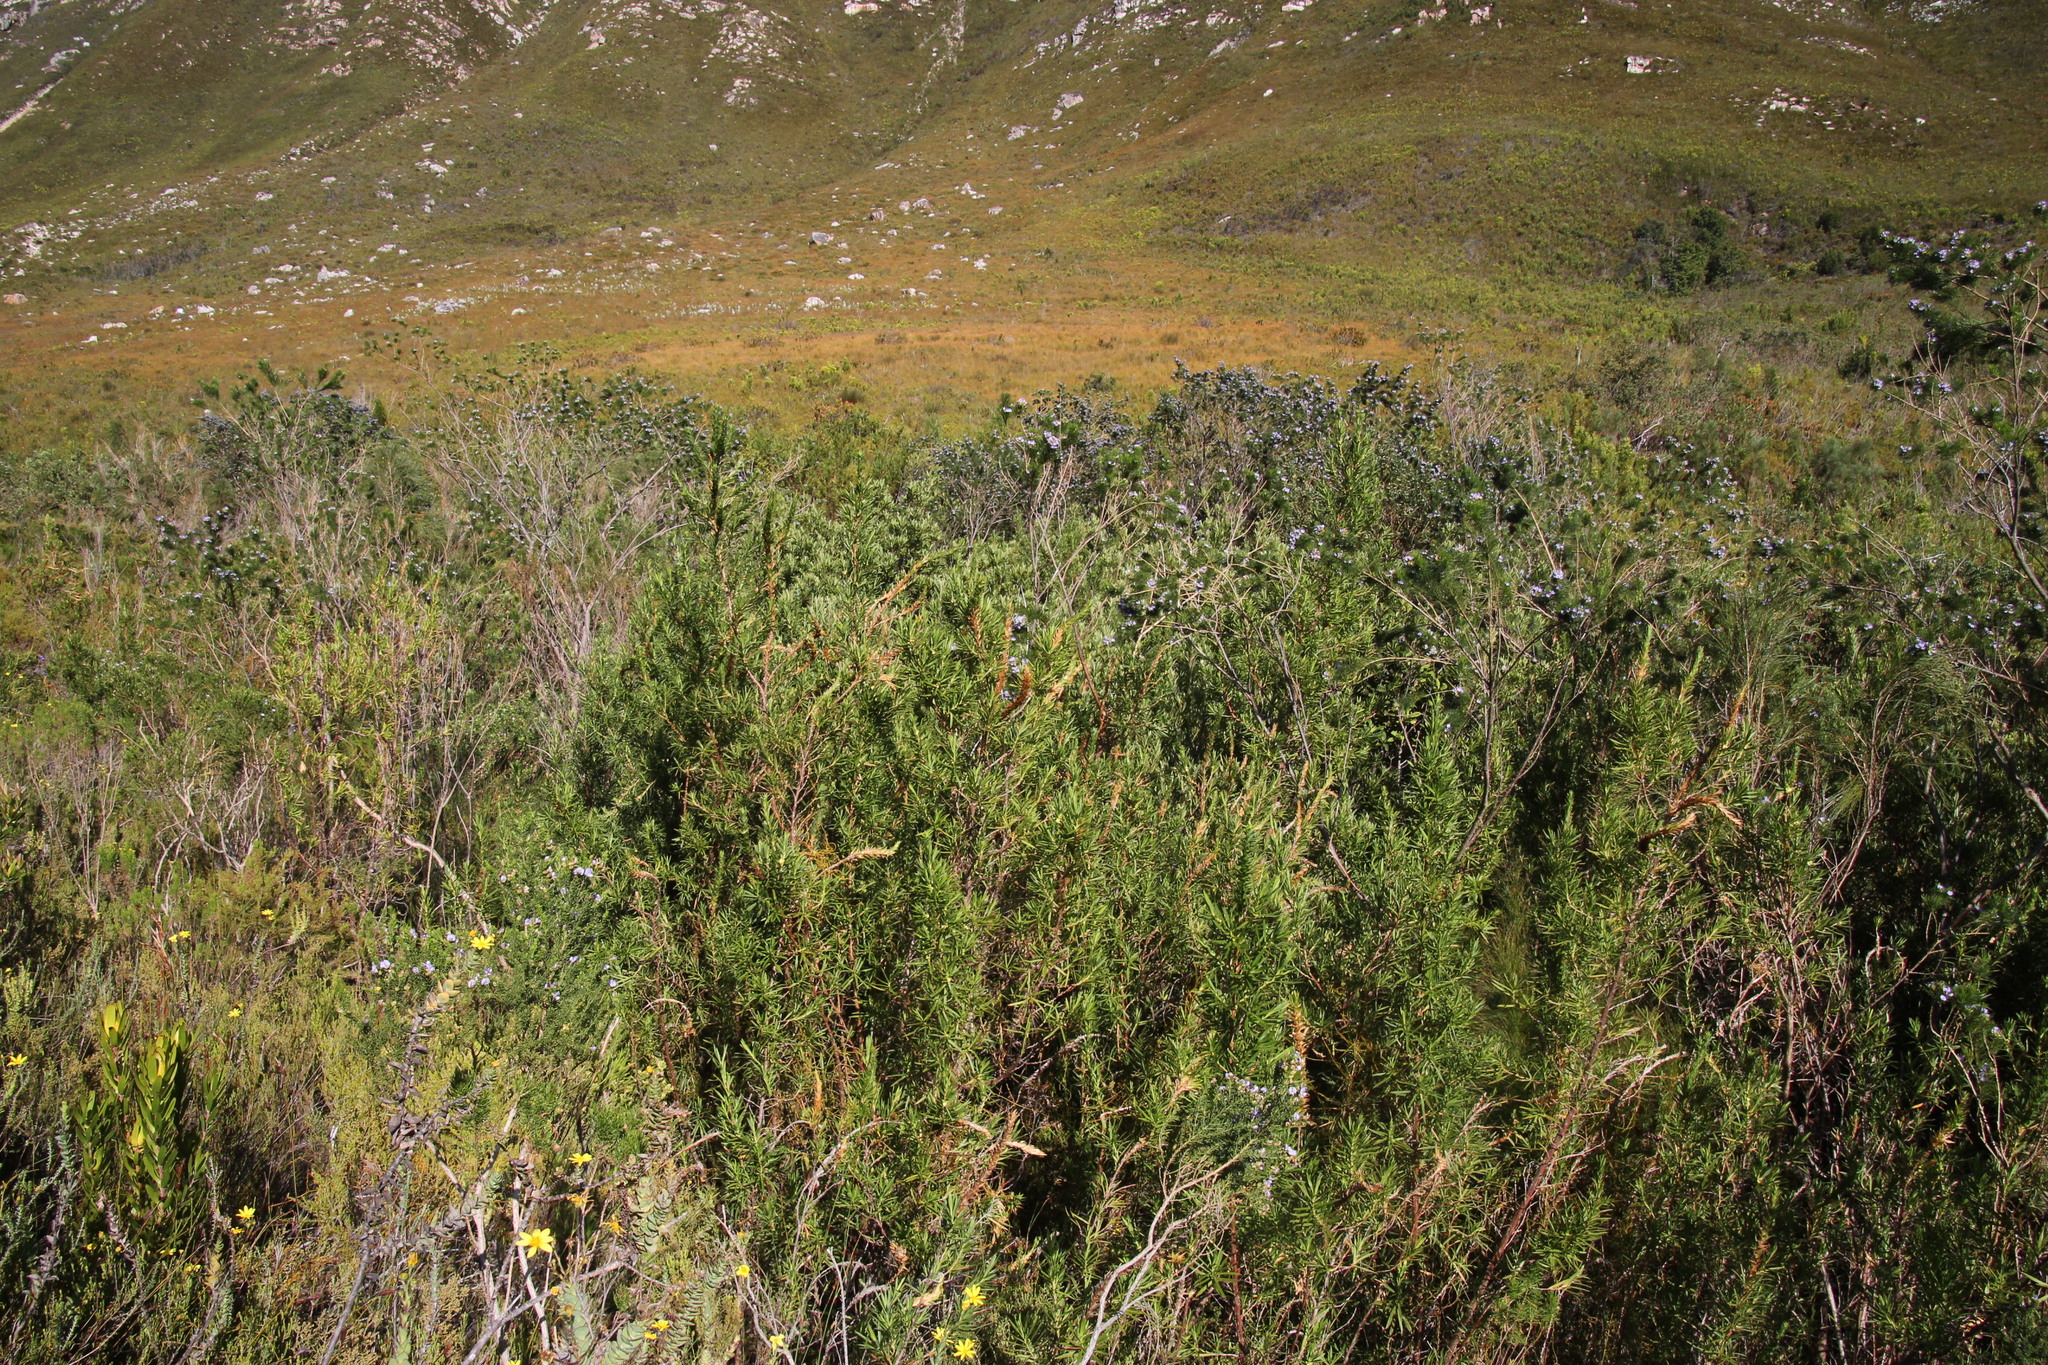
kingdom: Plantae
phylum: Tracheophyta
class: Magnoliopsida
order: Rosales
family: Rosaceae
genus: Cliffortia
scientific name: Cliffortia heterophylla
